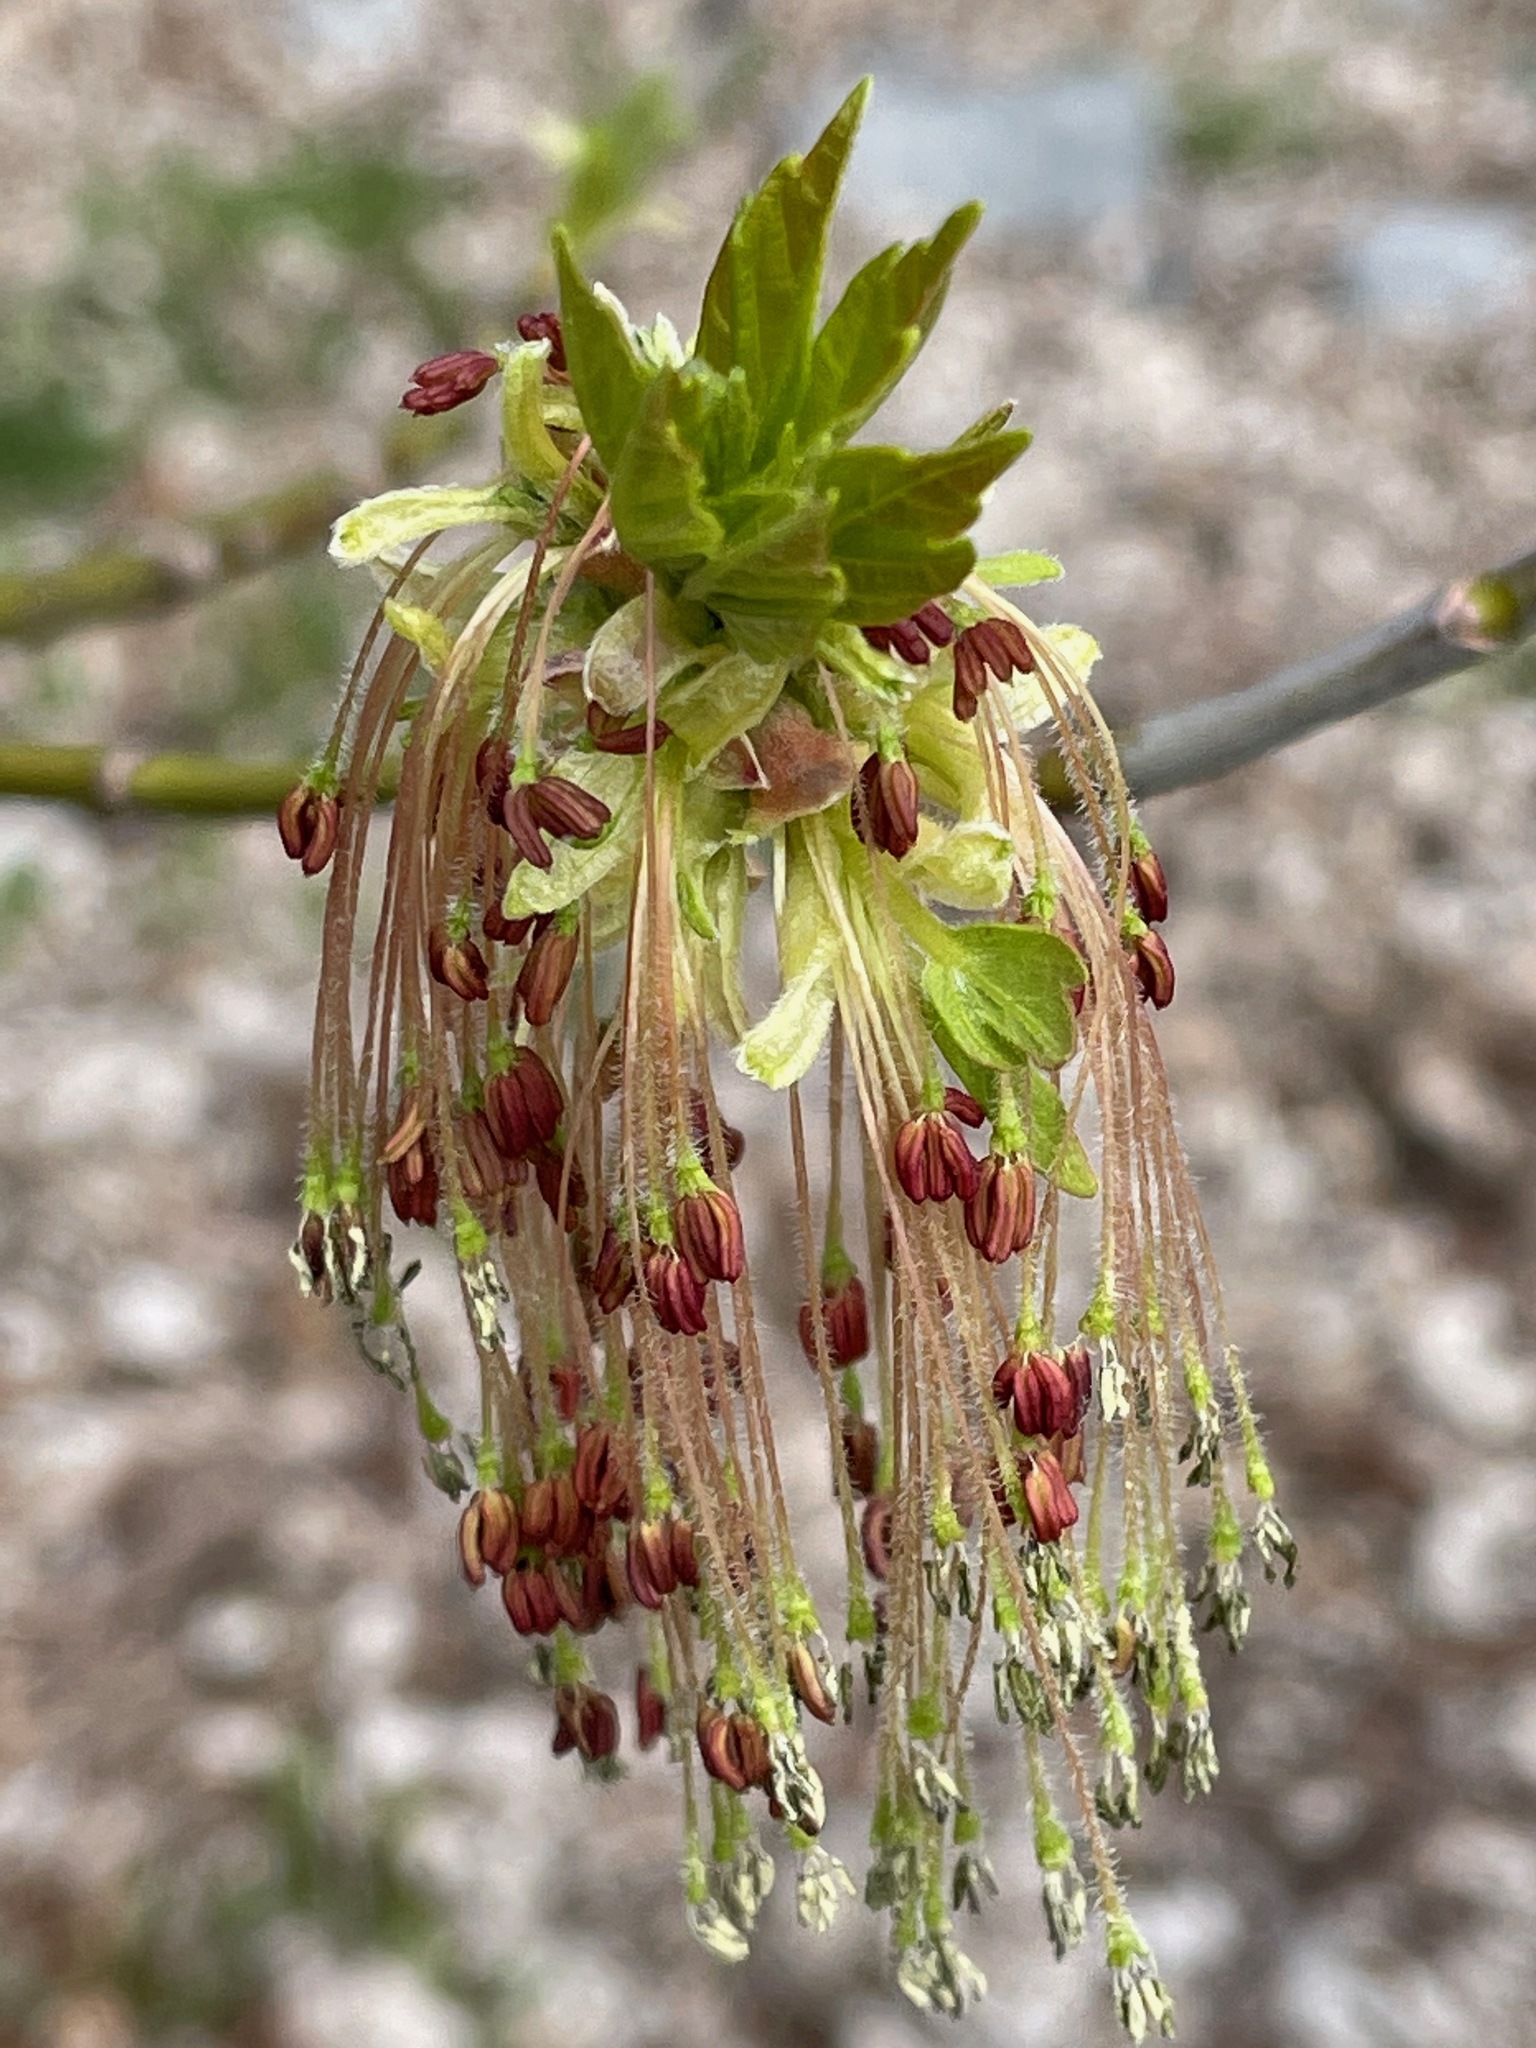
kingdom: Plantae
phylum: Tracheophyta
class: Magnoliopsida
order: Sapindales
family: Sapindaceae
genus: Acer
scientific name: Acer negundo
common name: Ashleaf maple
